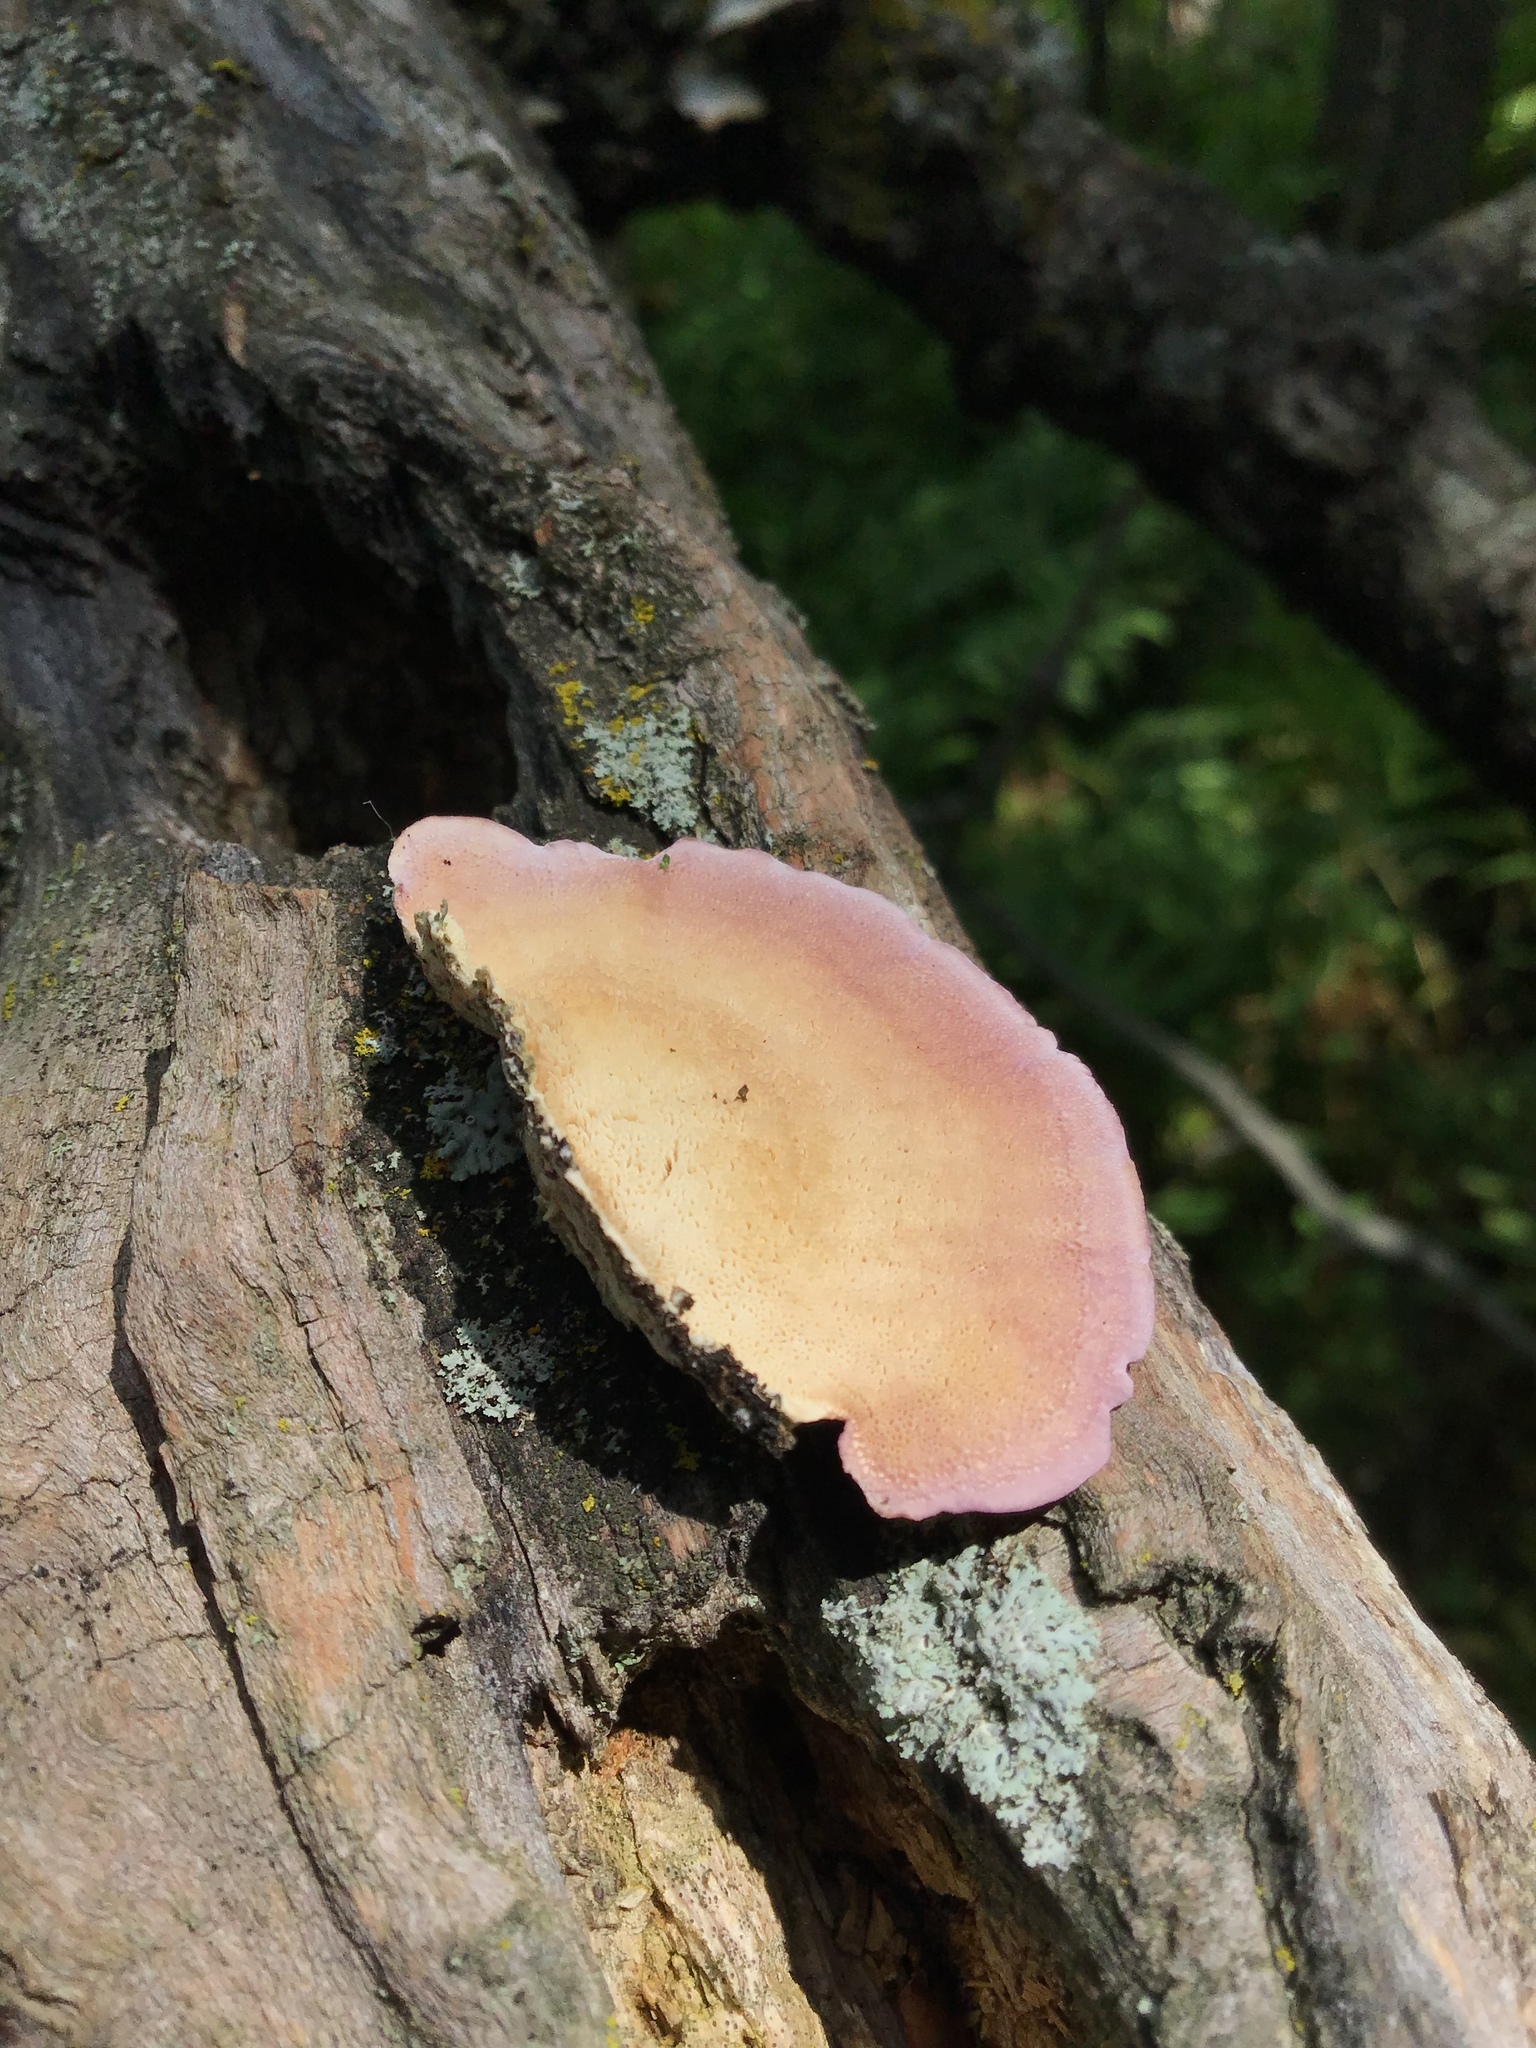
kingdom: Fungi
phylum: Basidiomycota
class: Agaricomycetes
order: Hymenochaetales
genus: Trichaptum
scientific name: Trichaptum subchartaceum
